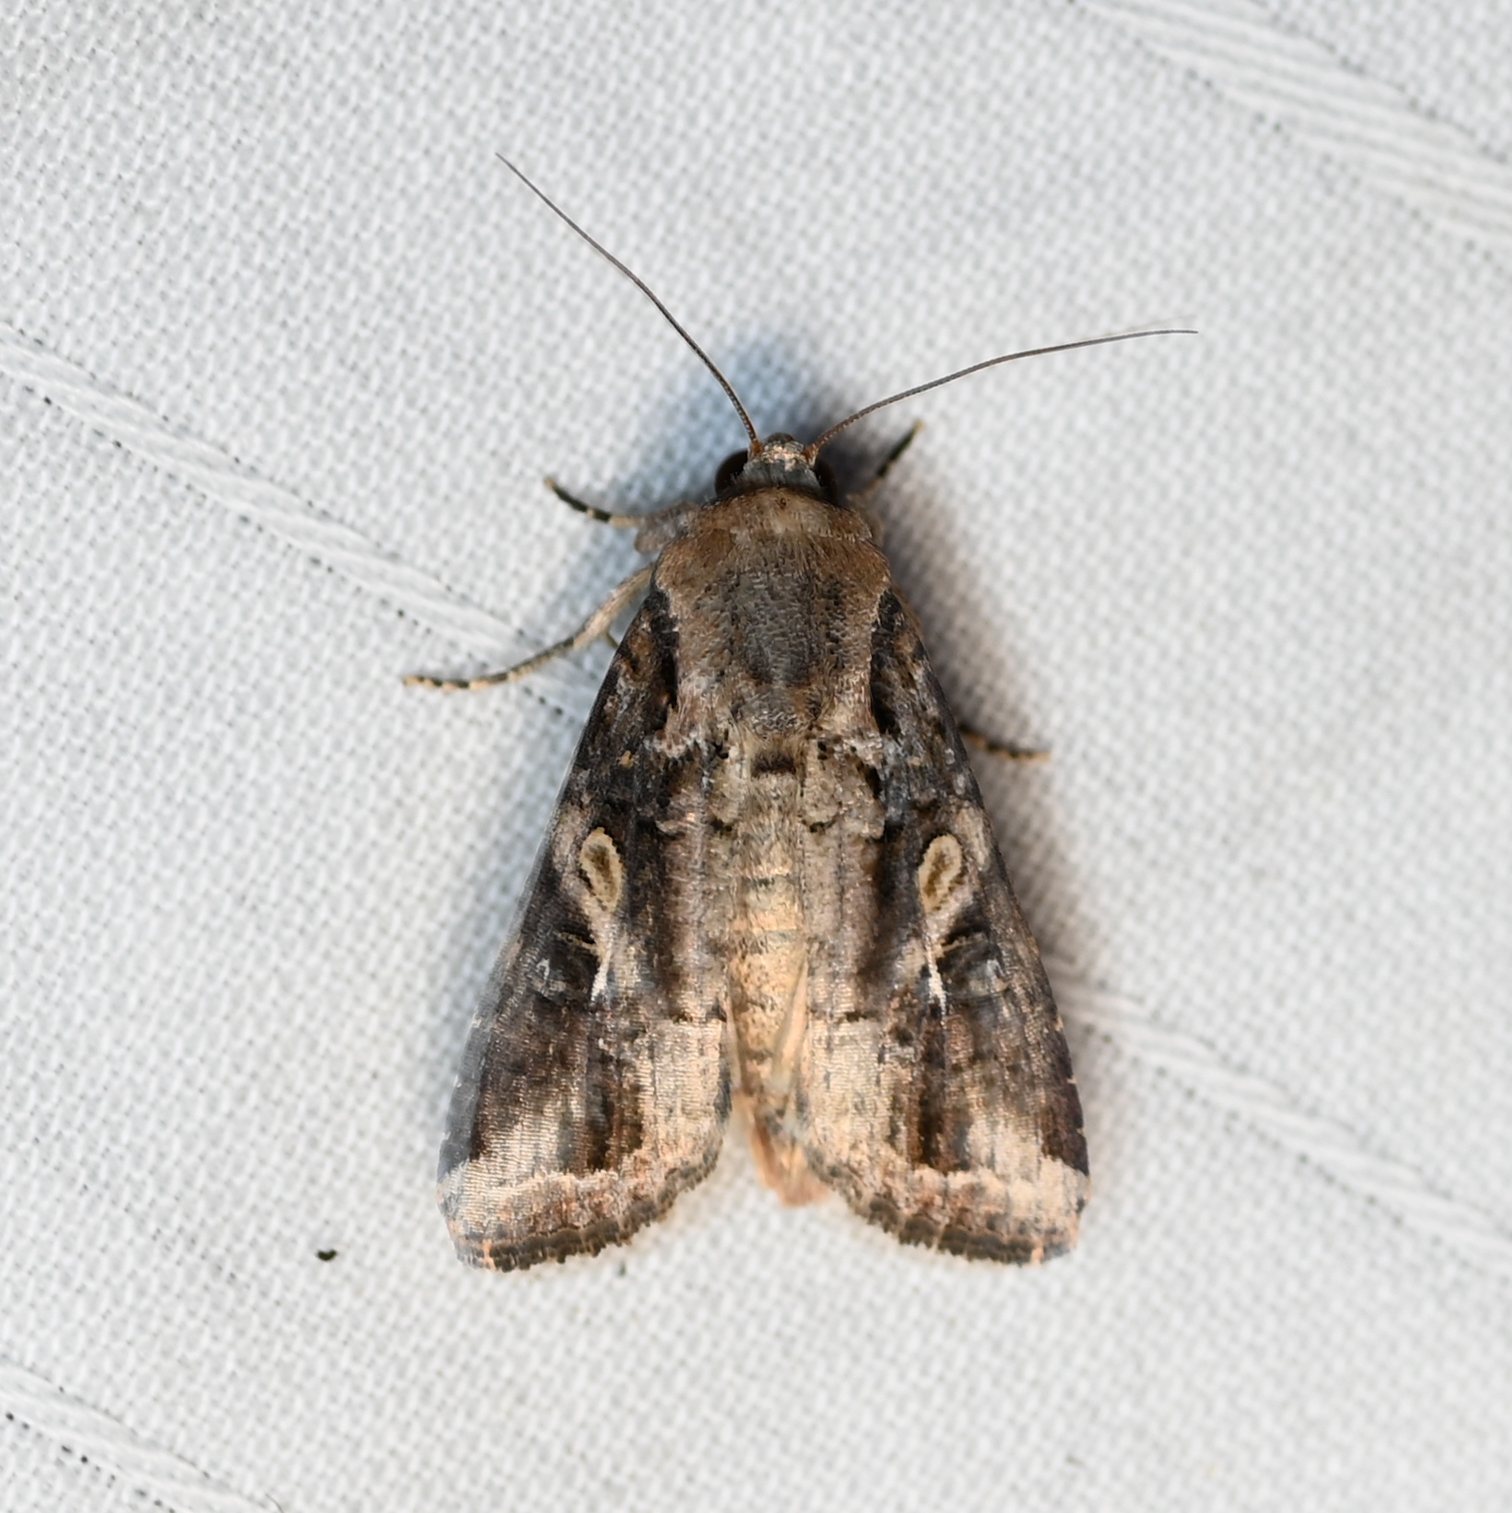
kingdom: Animalia
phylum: Arthropoda
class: Insecta
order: Lepidoptera
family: Noctuidae
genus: Spodoptera
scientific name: Spodoptera frugiperda
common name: Fall armyworm
